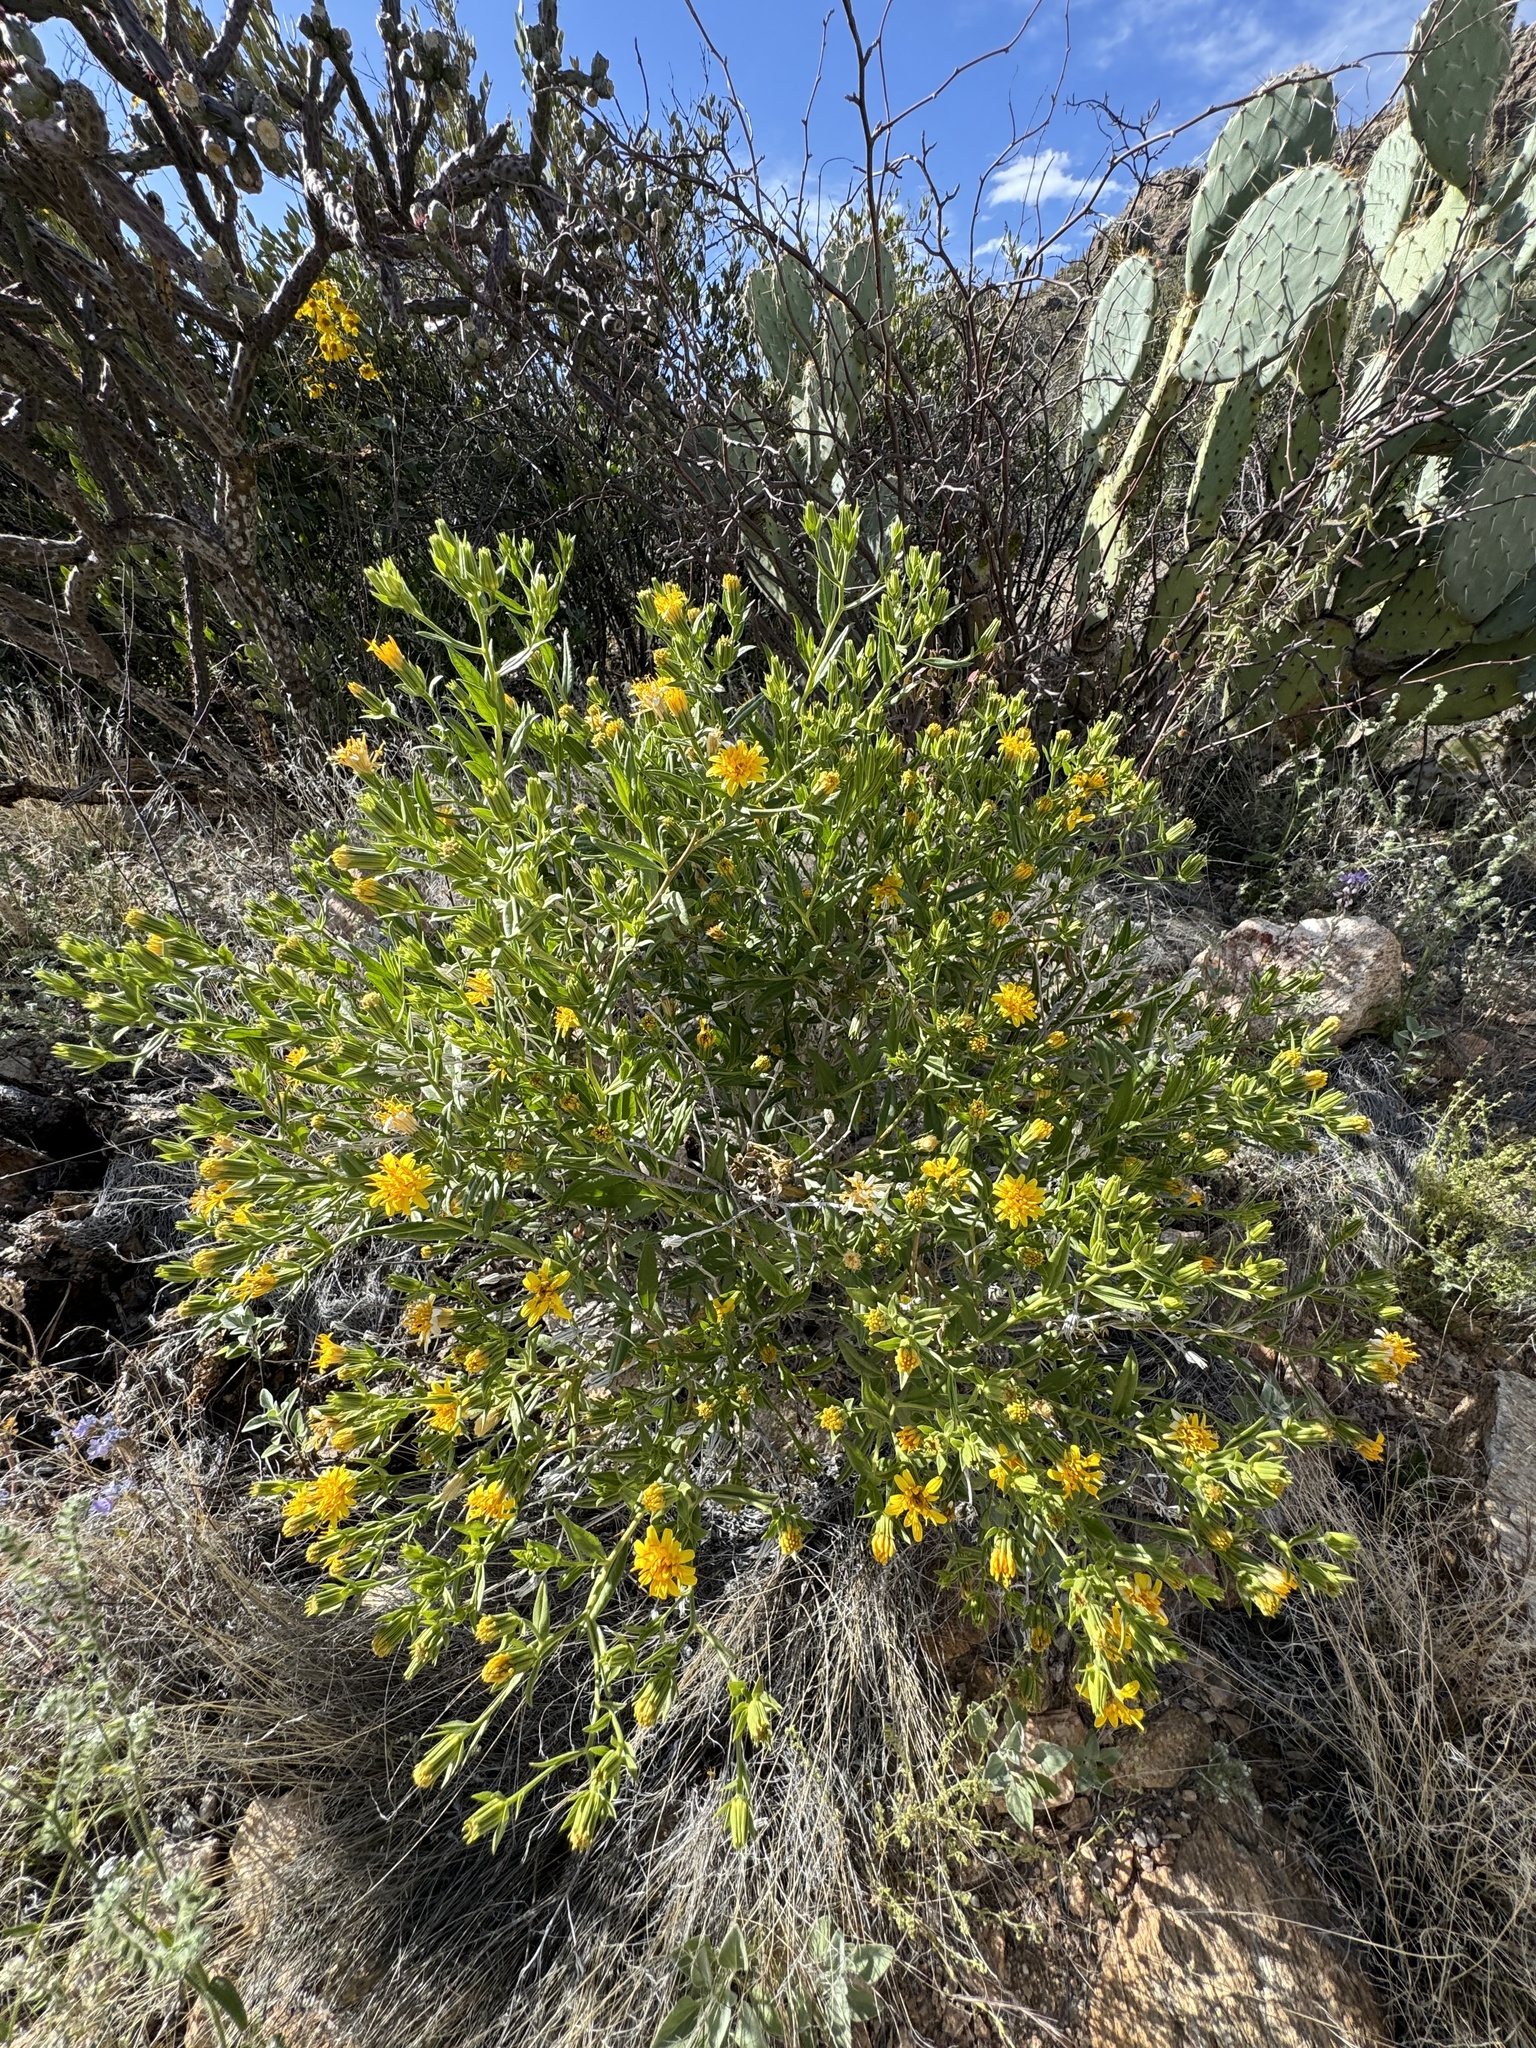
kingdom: Plantae
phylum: Tracheophyta
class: Magnoliopsida
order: Asterales
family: Asteraceae
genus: Trixis
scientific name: Trixis californica
